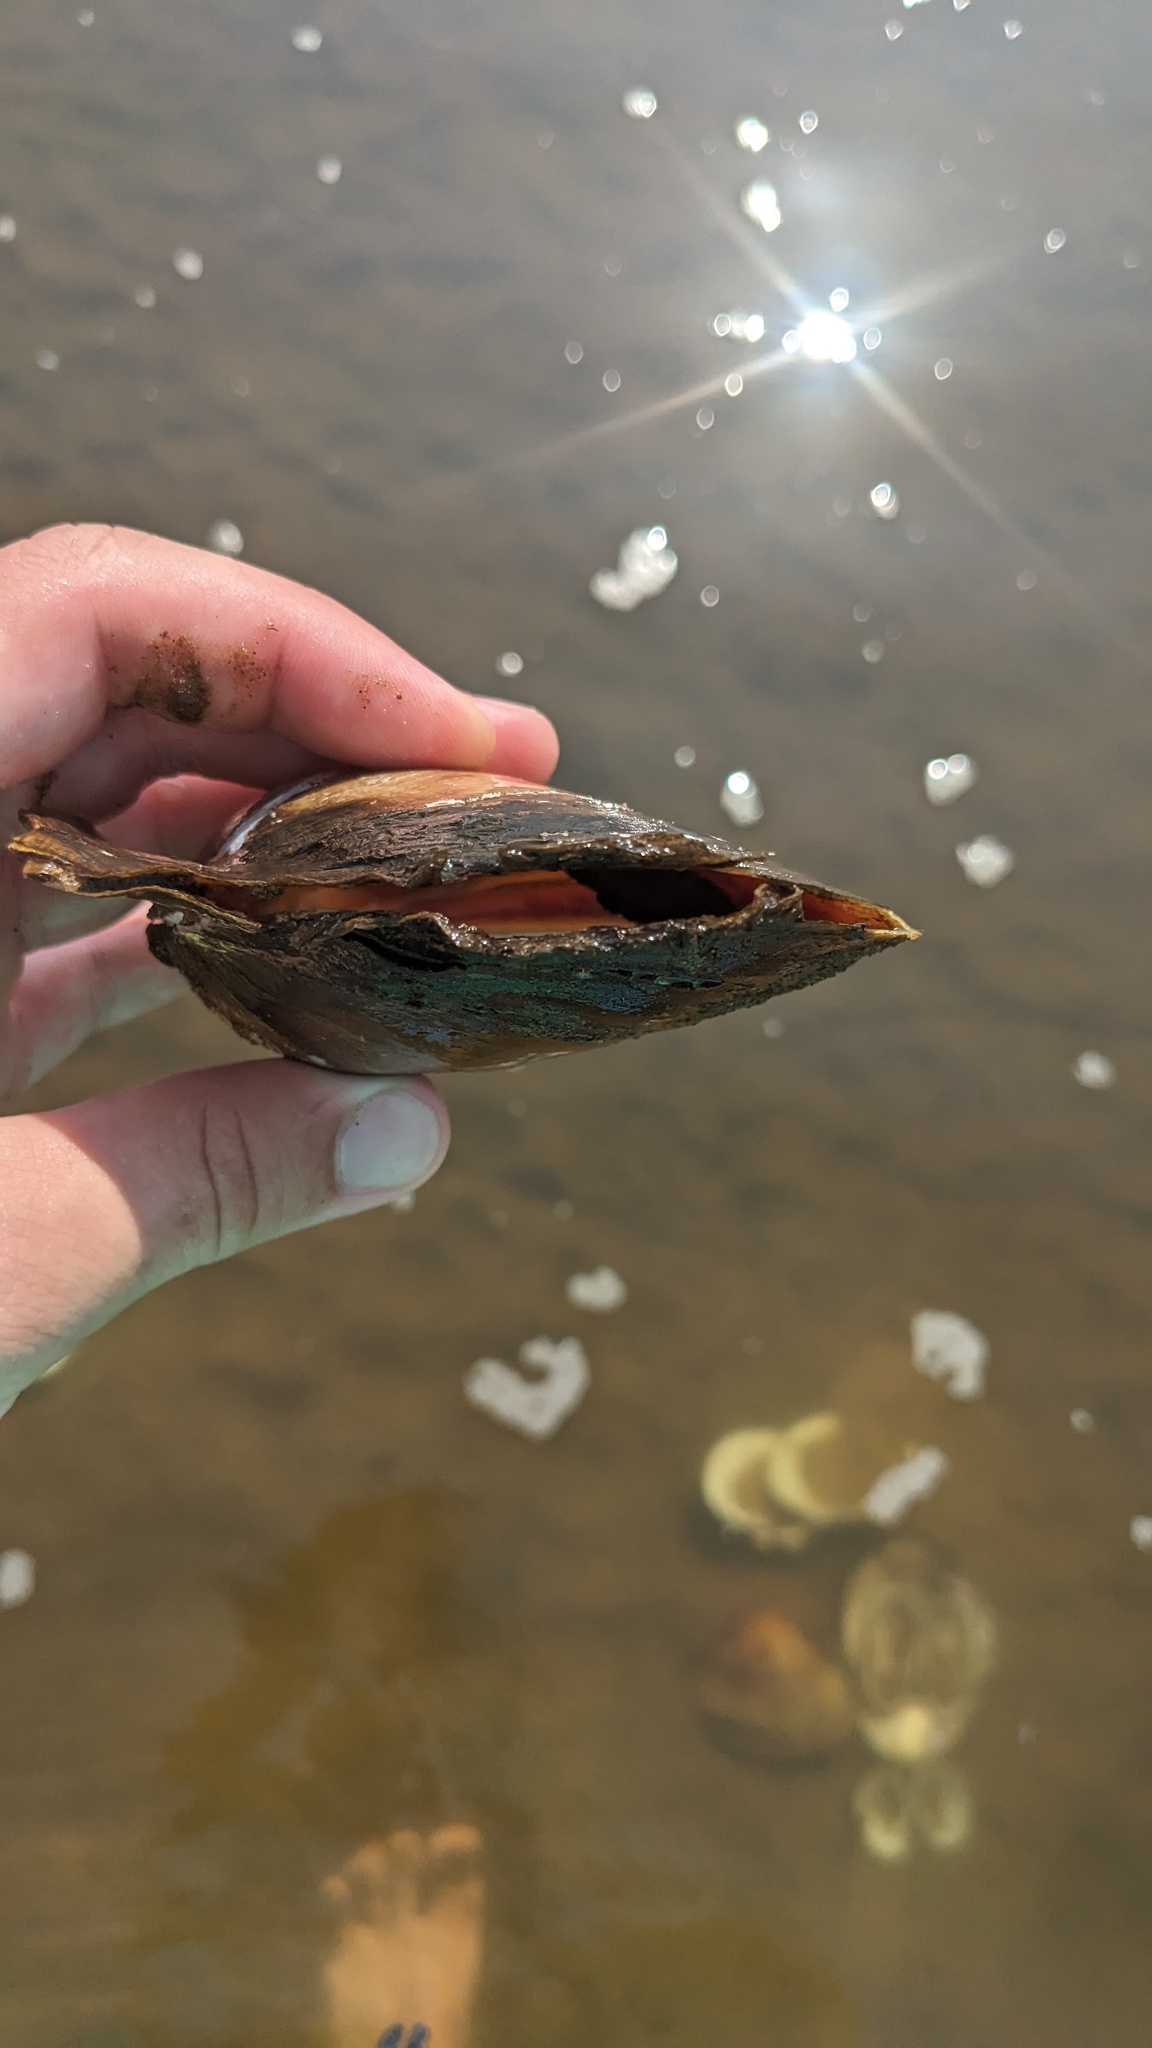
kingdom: Animalia
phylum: Mollusca
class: Bivalvia
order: Unionida
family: Unionidae
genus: Potamilus
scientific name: Potamilus ohiensis
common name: Pink papershell
